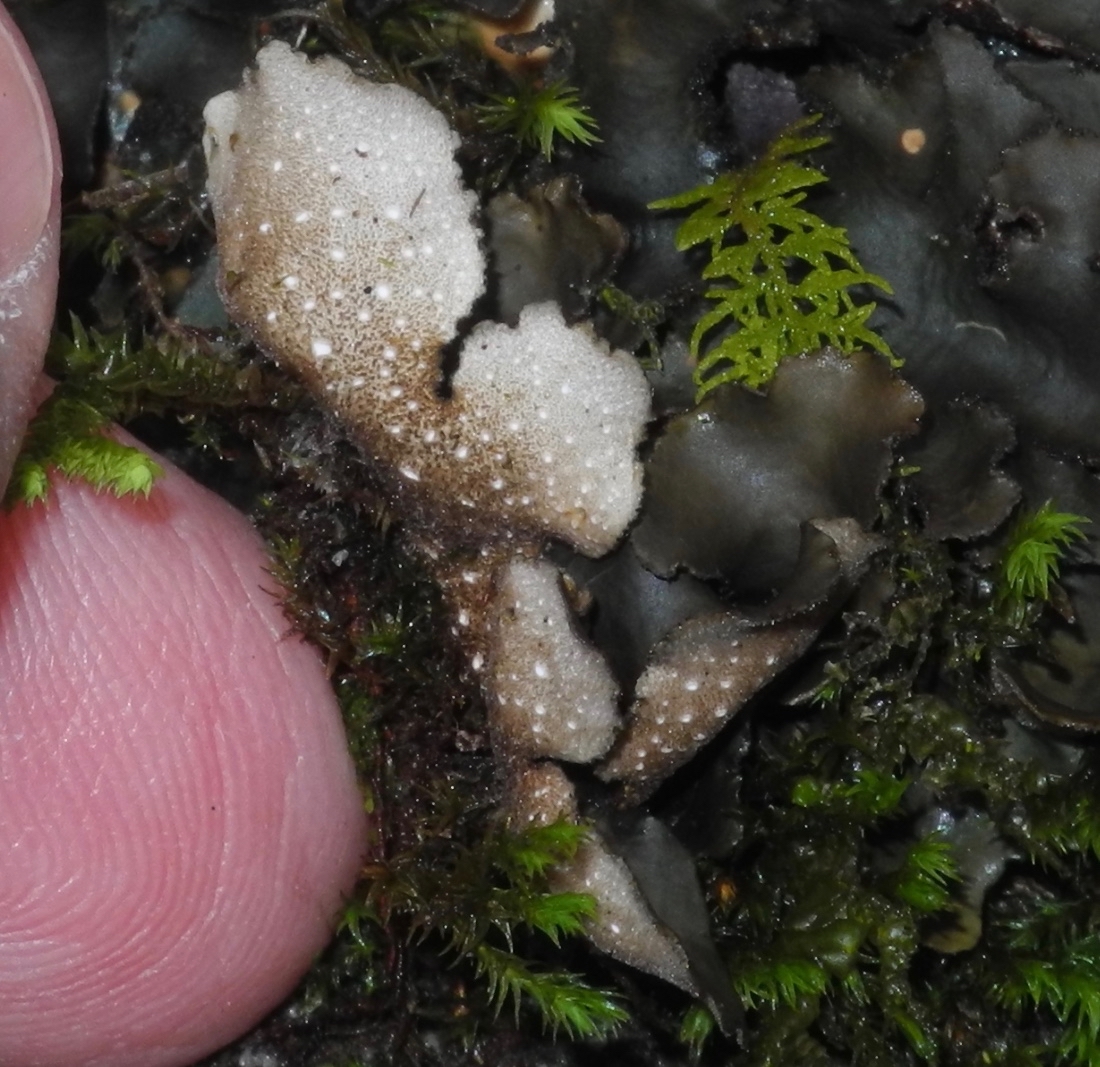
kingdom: Fungi
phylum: Ascomycota
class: Lecanoromycetes
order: Peltigerales
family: Lobariaceae
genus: Sticta
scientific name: Sticta beauvoisii
